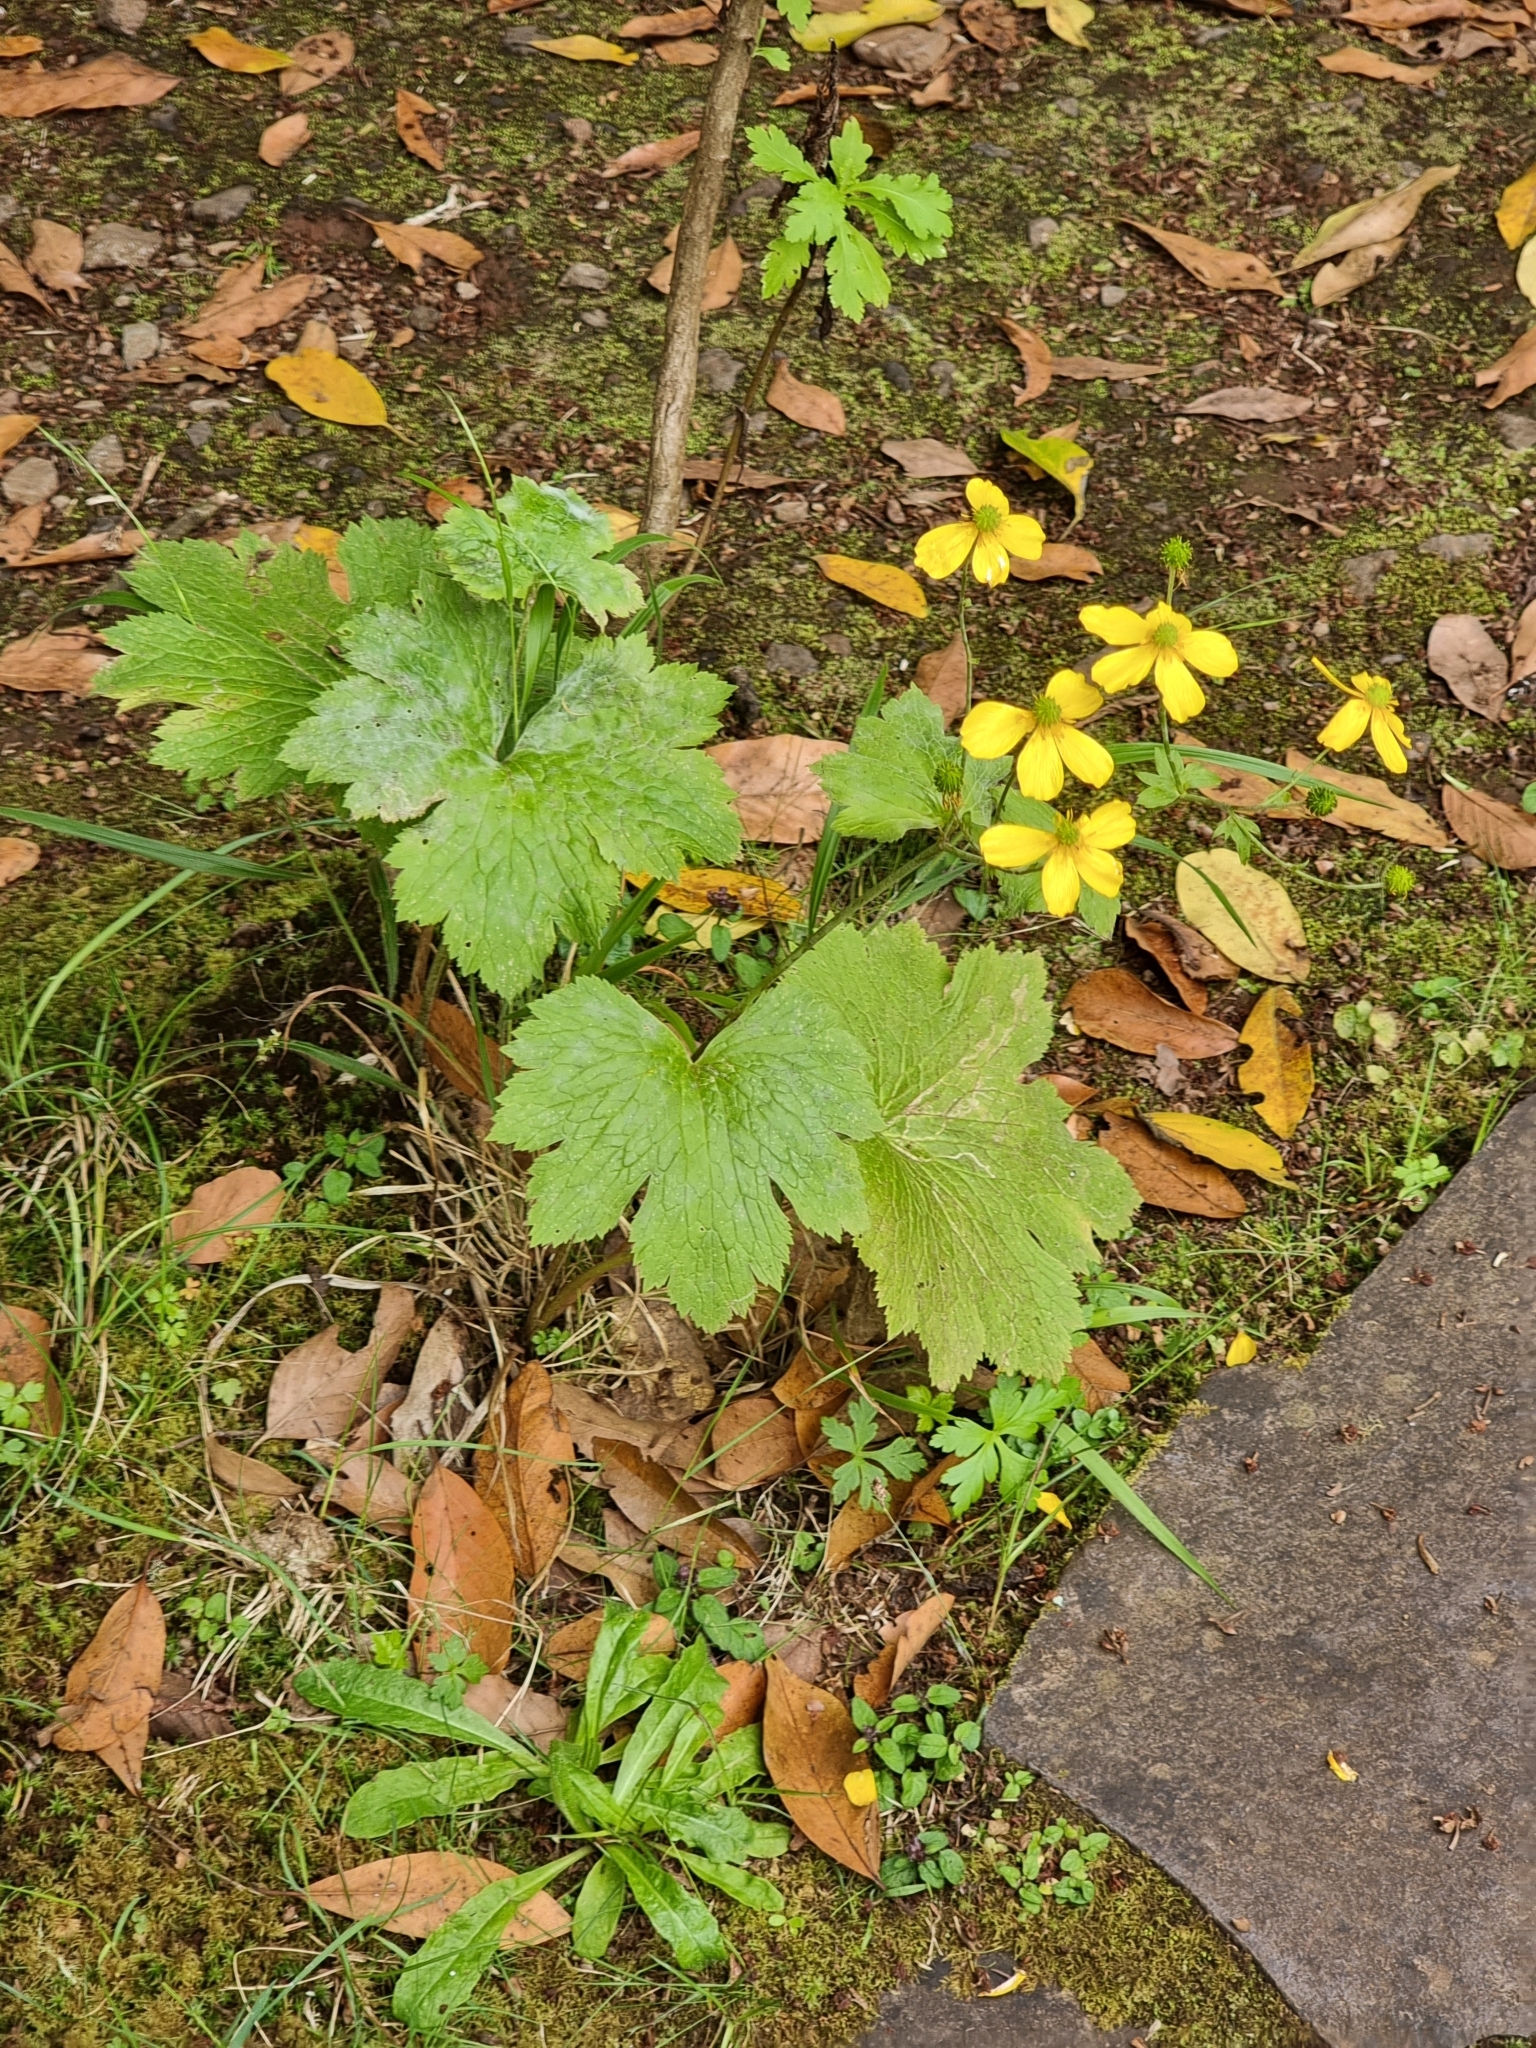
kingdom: Plantae
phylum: Tracheophyta
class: Magnoliopsida
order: Ranunculales
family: Ranunculaceae
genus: Ranunculus
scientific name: Ranunculus cortusifolius
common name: Azores buttercup
